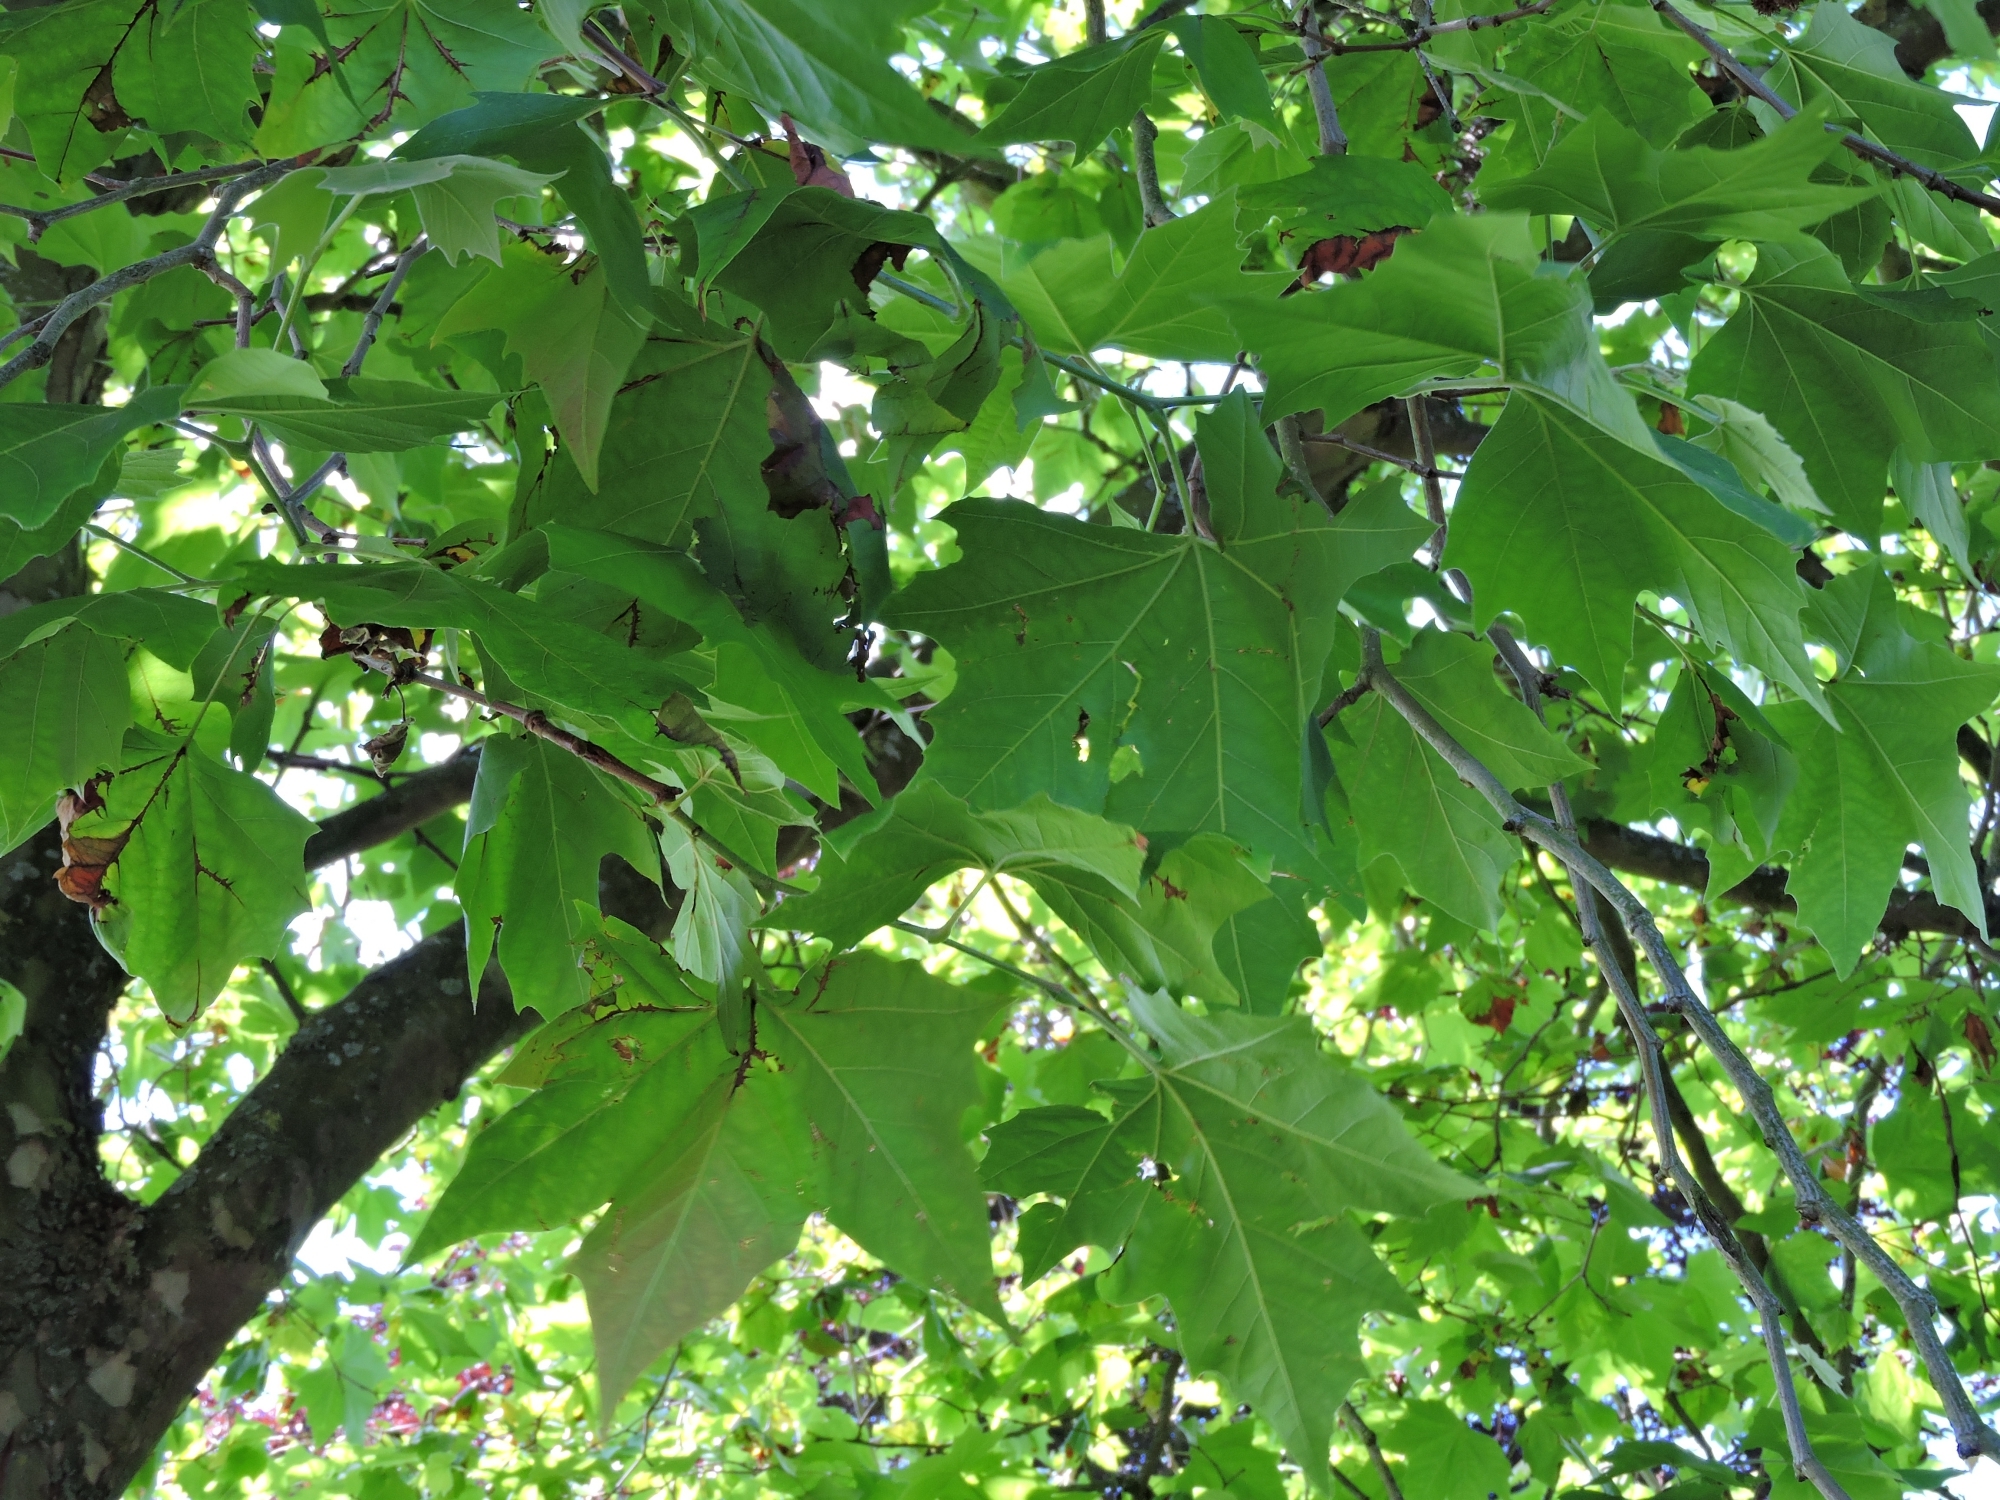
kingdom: Plantae
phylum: Tracheophyta
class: Magnoliopsida
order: Proteales
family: Platanaceae
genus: Platanus
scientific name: Platanus hispanica
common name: London plane
